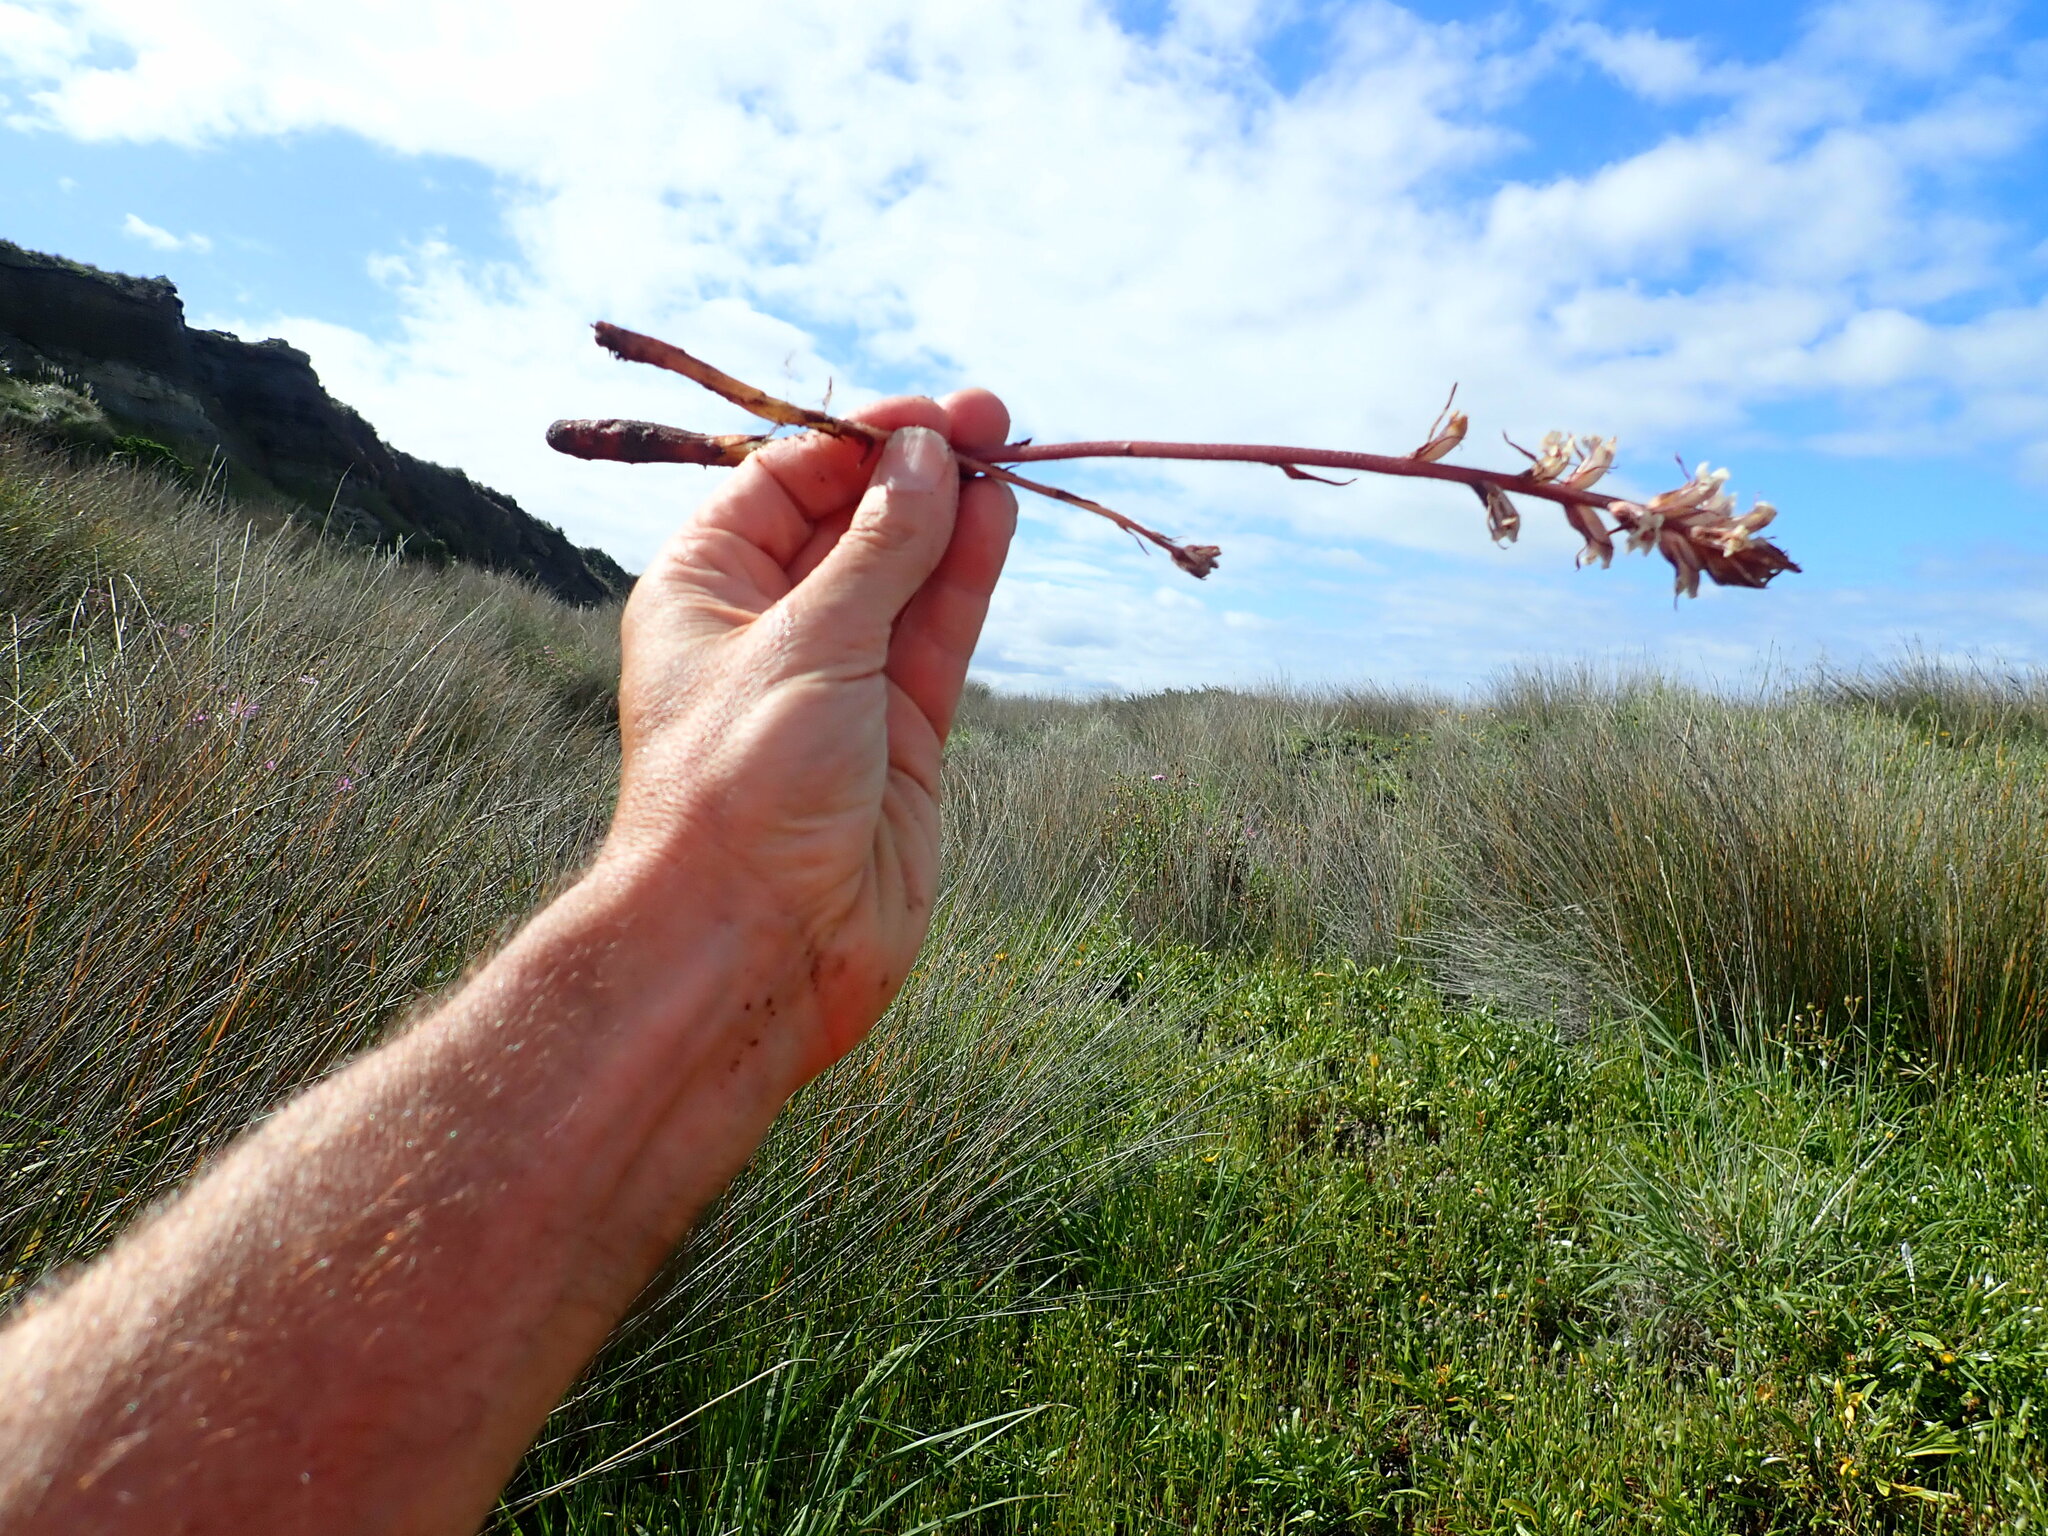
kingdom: Plantae
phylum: Tracheophyta
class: Magnoliopsida
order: Lamiales
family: Orobanchaceae
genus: Orobanche
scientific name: Orobanche minor
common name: Common broomrape
